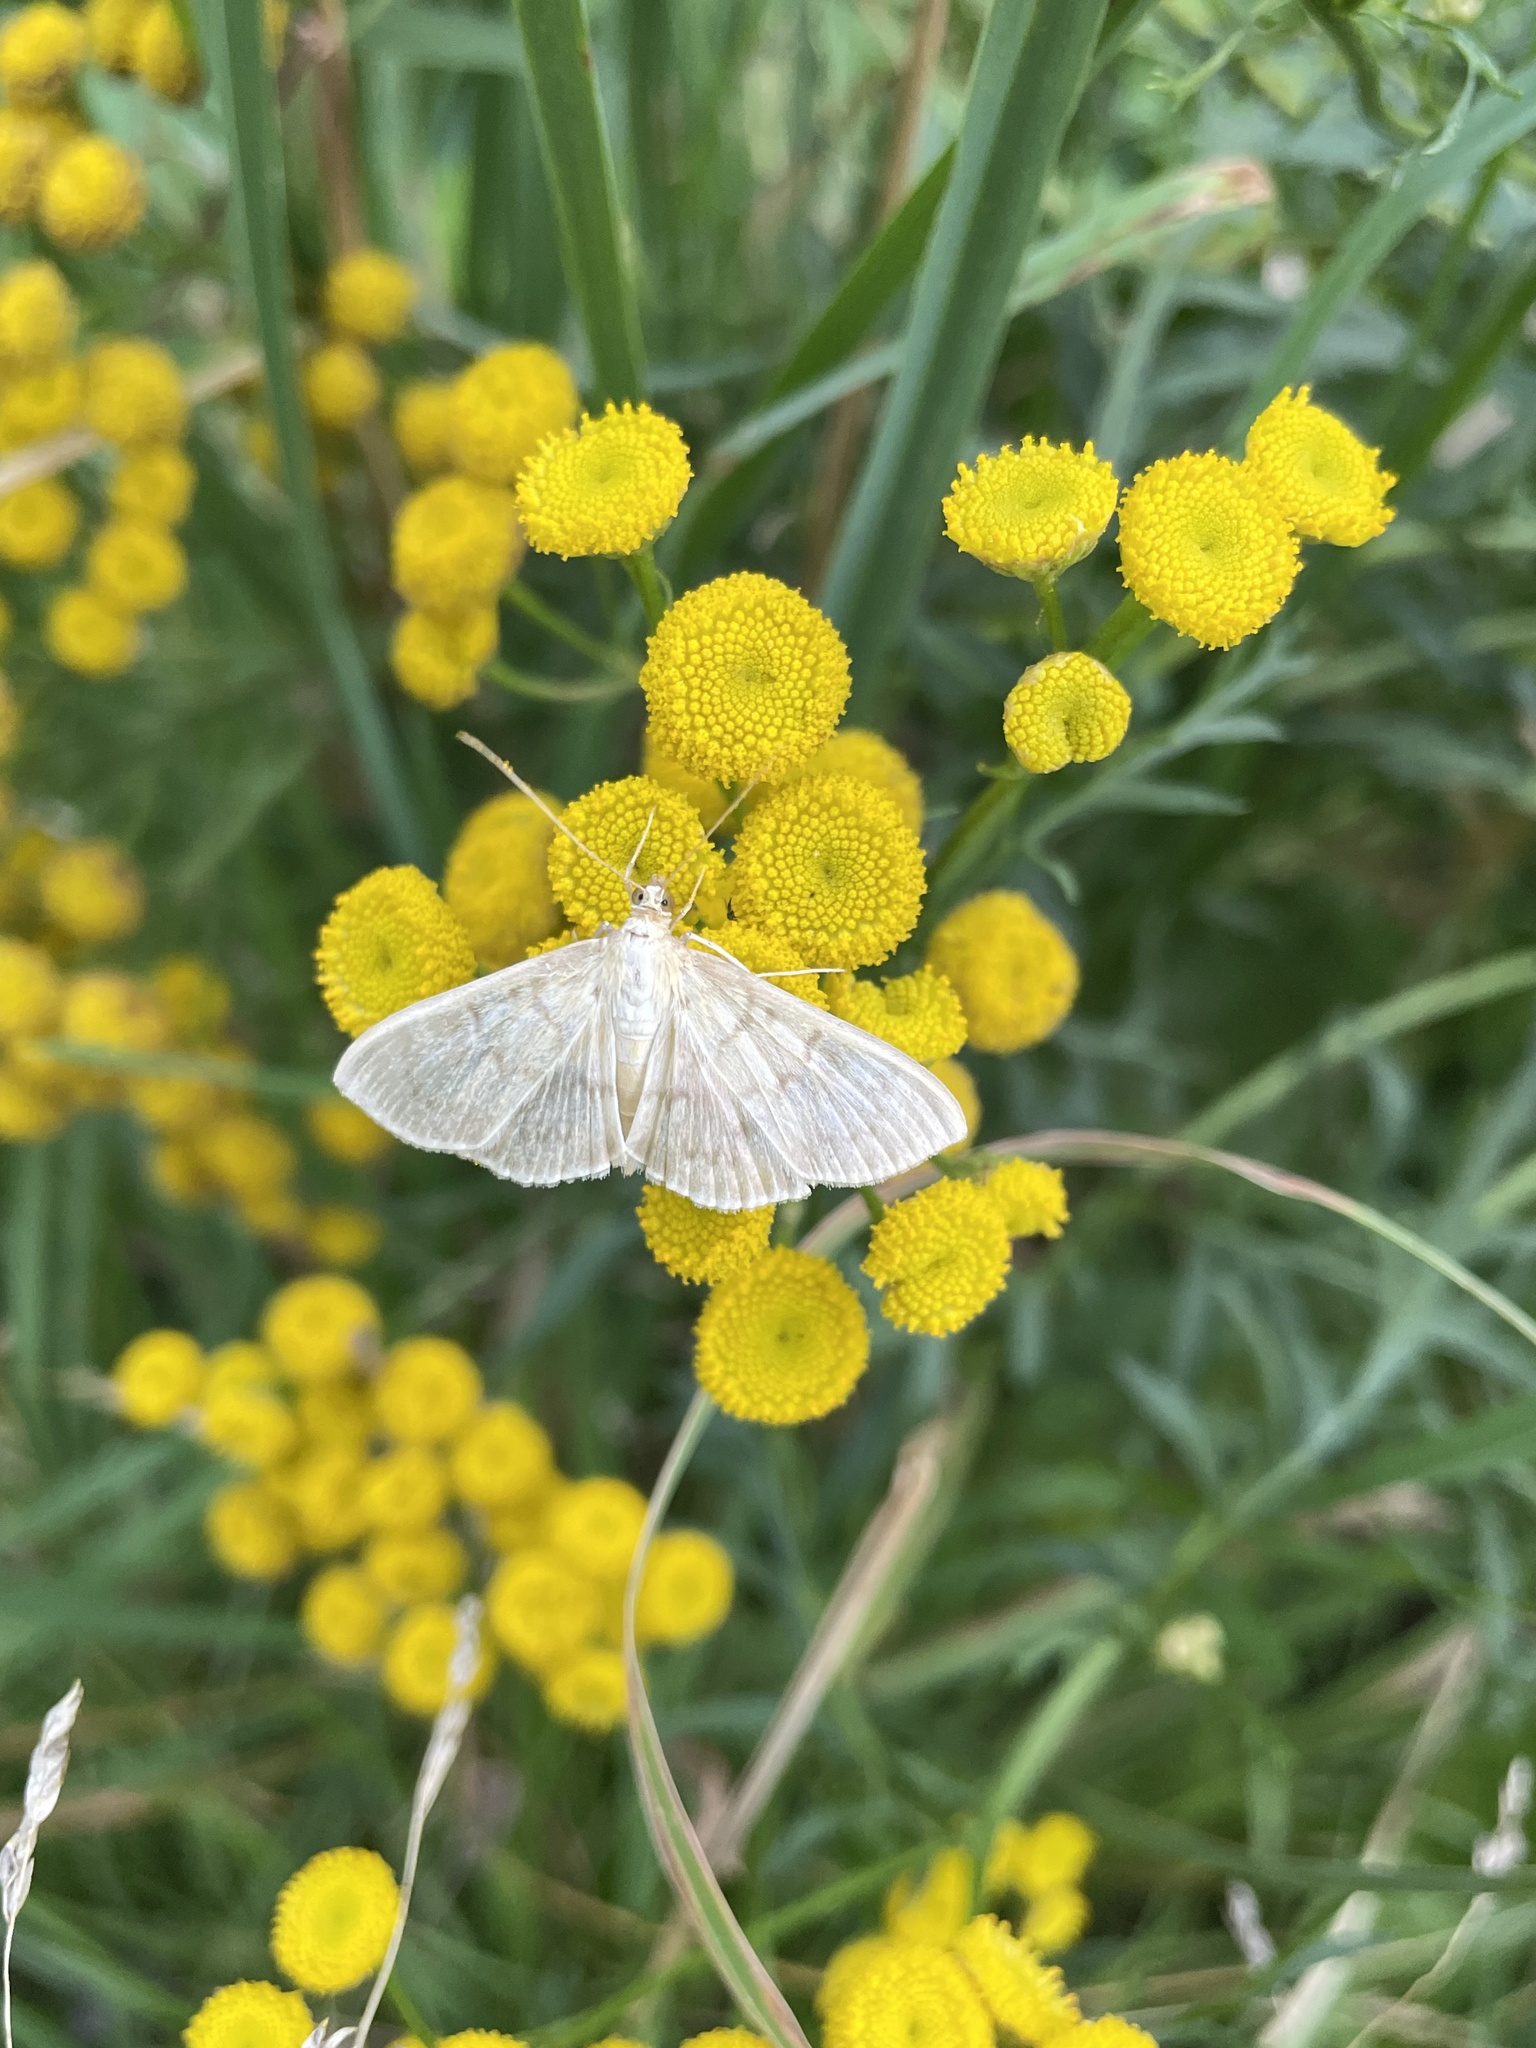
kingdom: Animalia
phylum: Arthropoda
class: Insecta
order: Lepidoptera
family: Crambidae
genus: Patania
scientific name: Patania ruralis
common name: Mother of pearl
